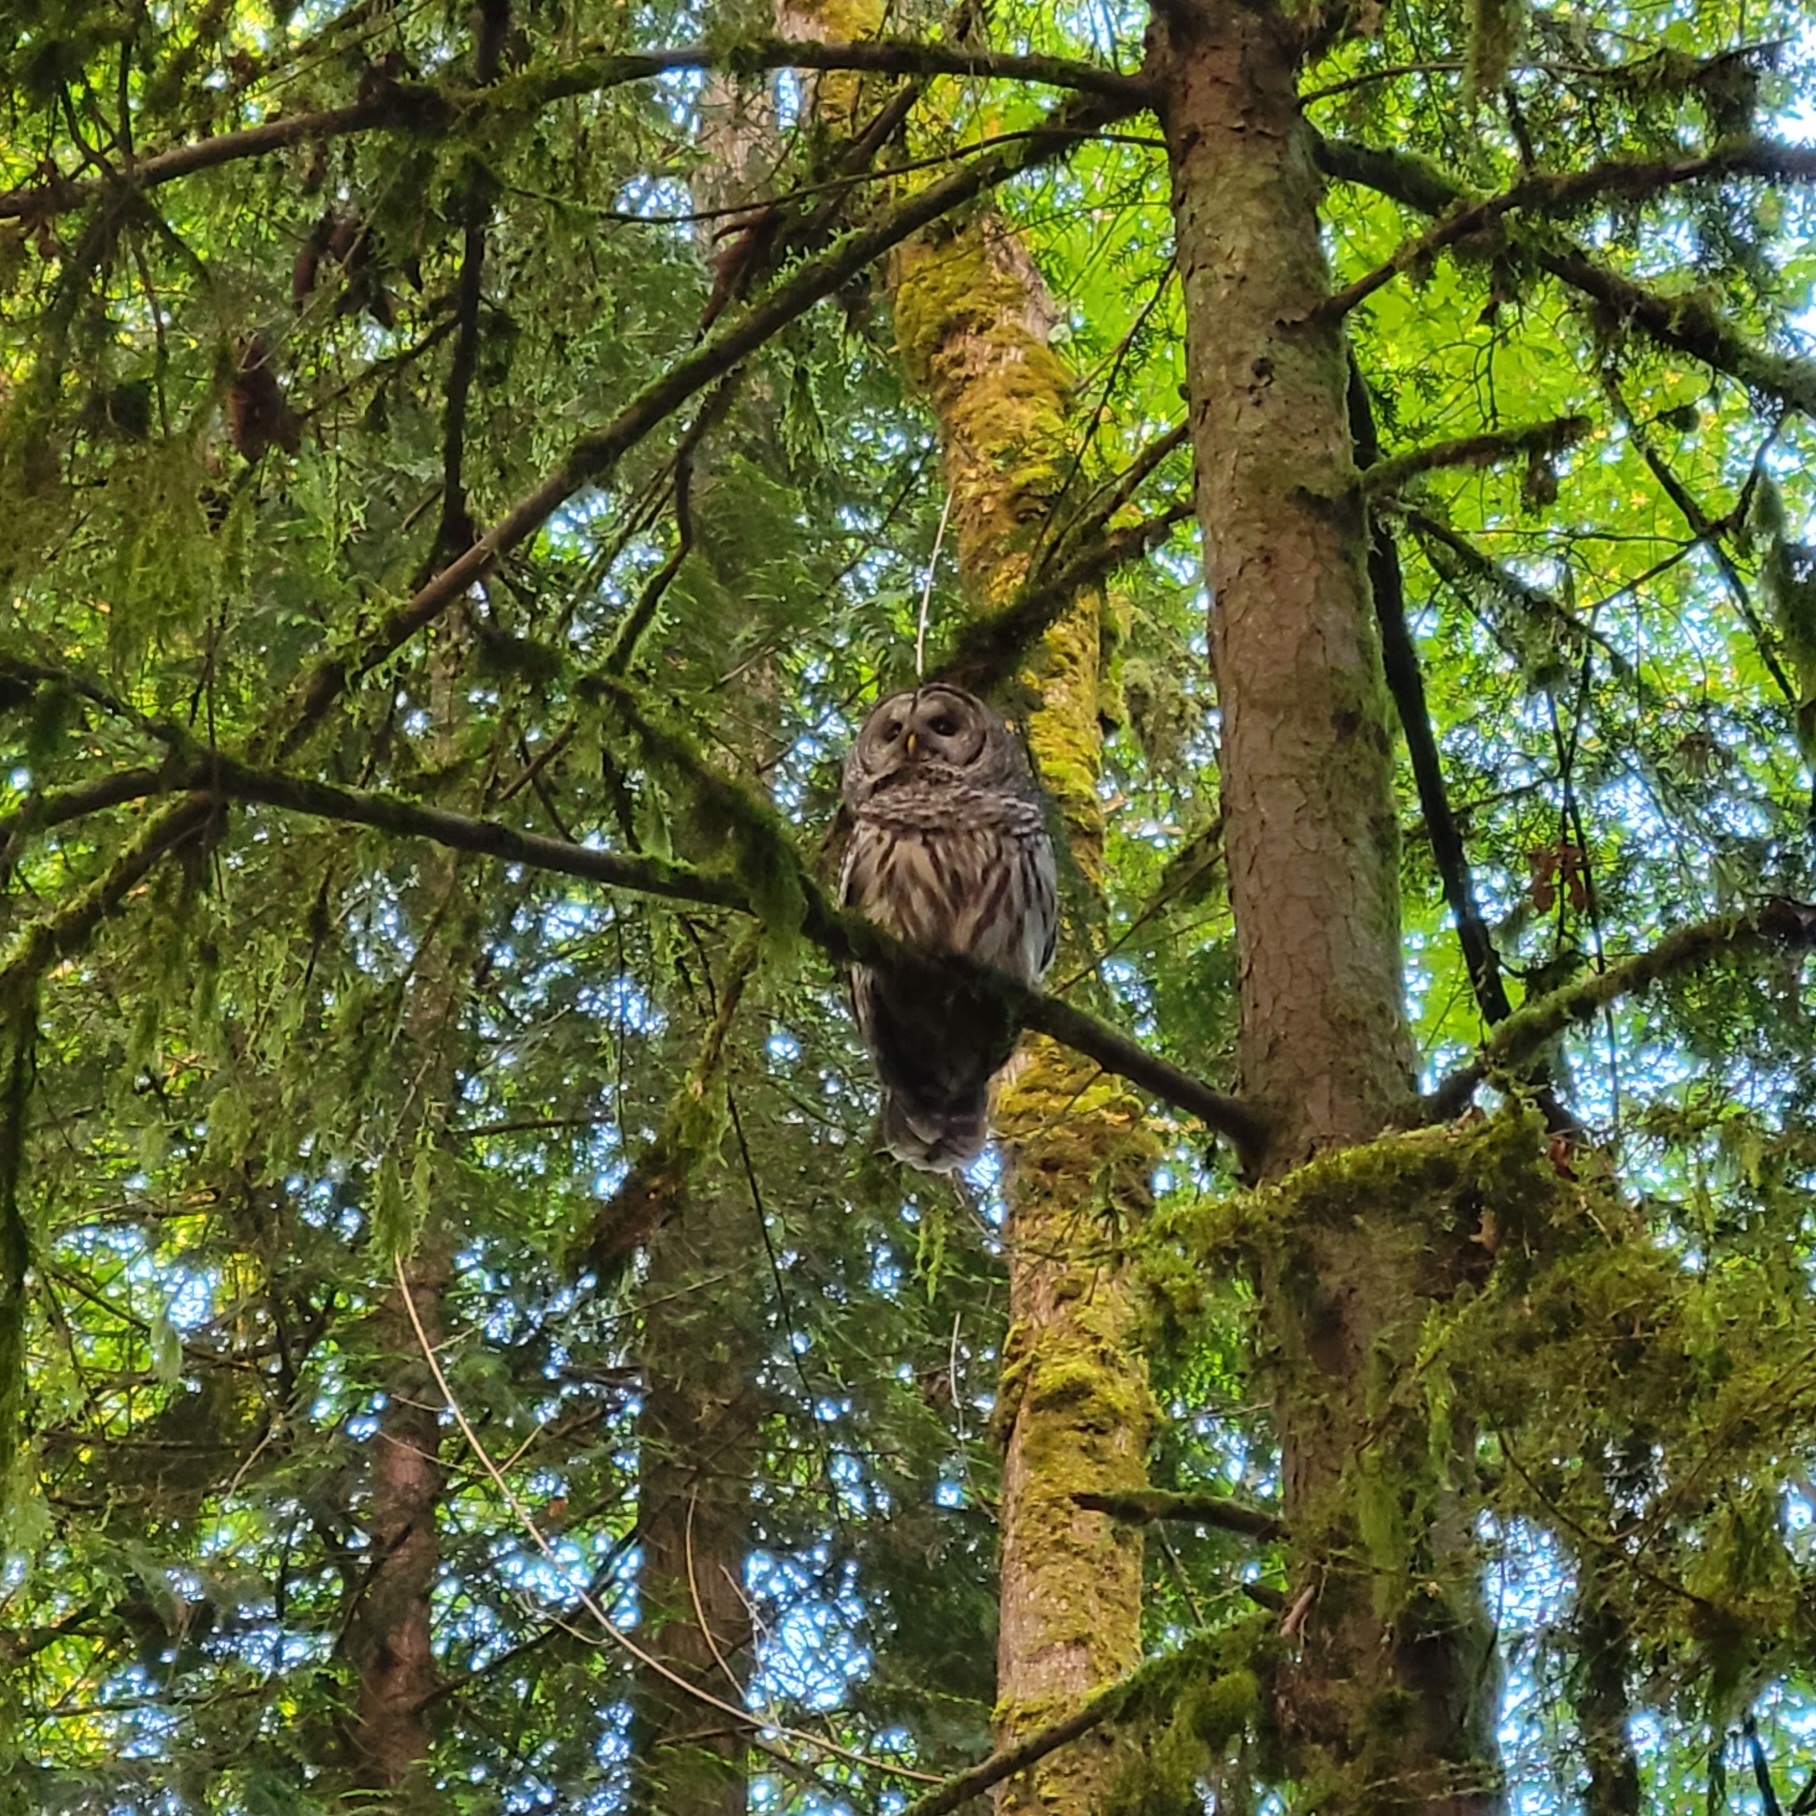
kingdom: Animalia
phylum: Chordata
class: Aves
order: Strigiformes
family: Strigidae
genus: Strix
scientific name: Strix varia
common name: Barred owl
